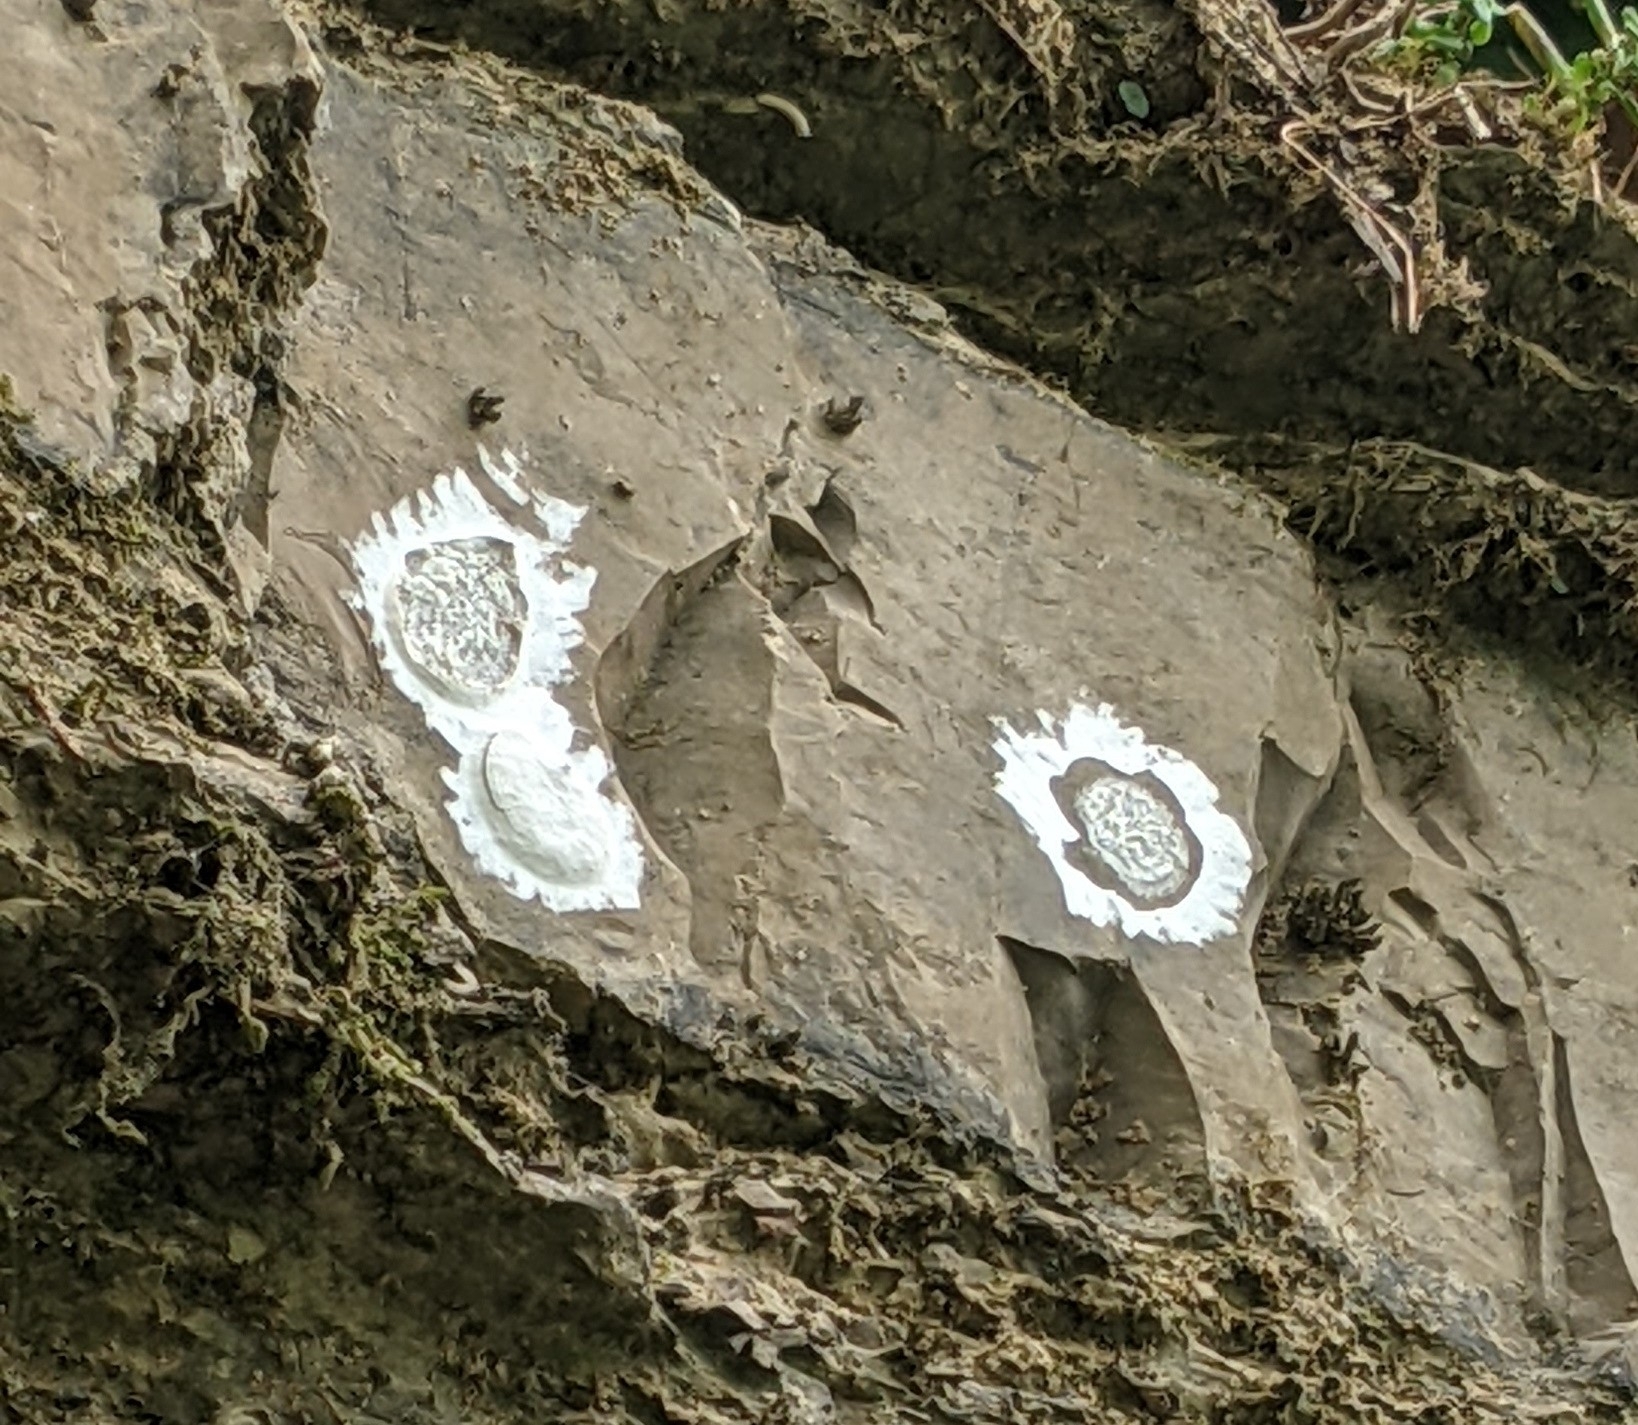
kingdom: Animalia
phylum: Arthropoda
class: Insecta
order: Megaloptera
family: Corydalidae
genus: Corydalus
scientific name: Corydalus cornutus
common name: Dobsonfly
